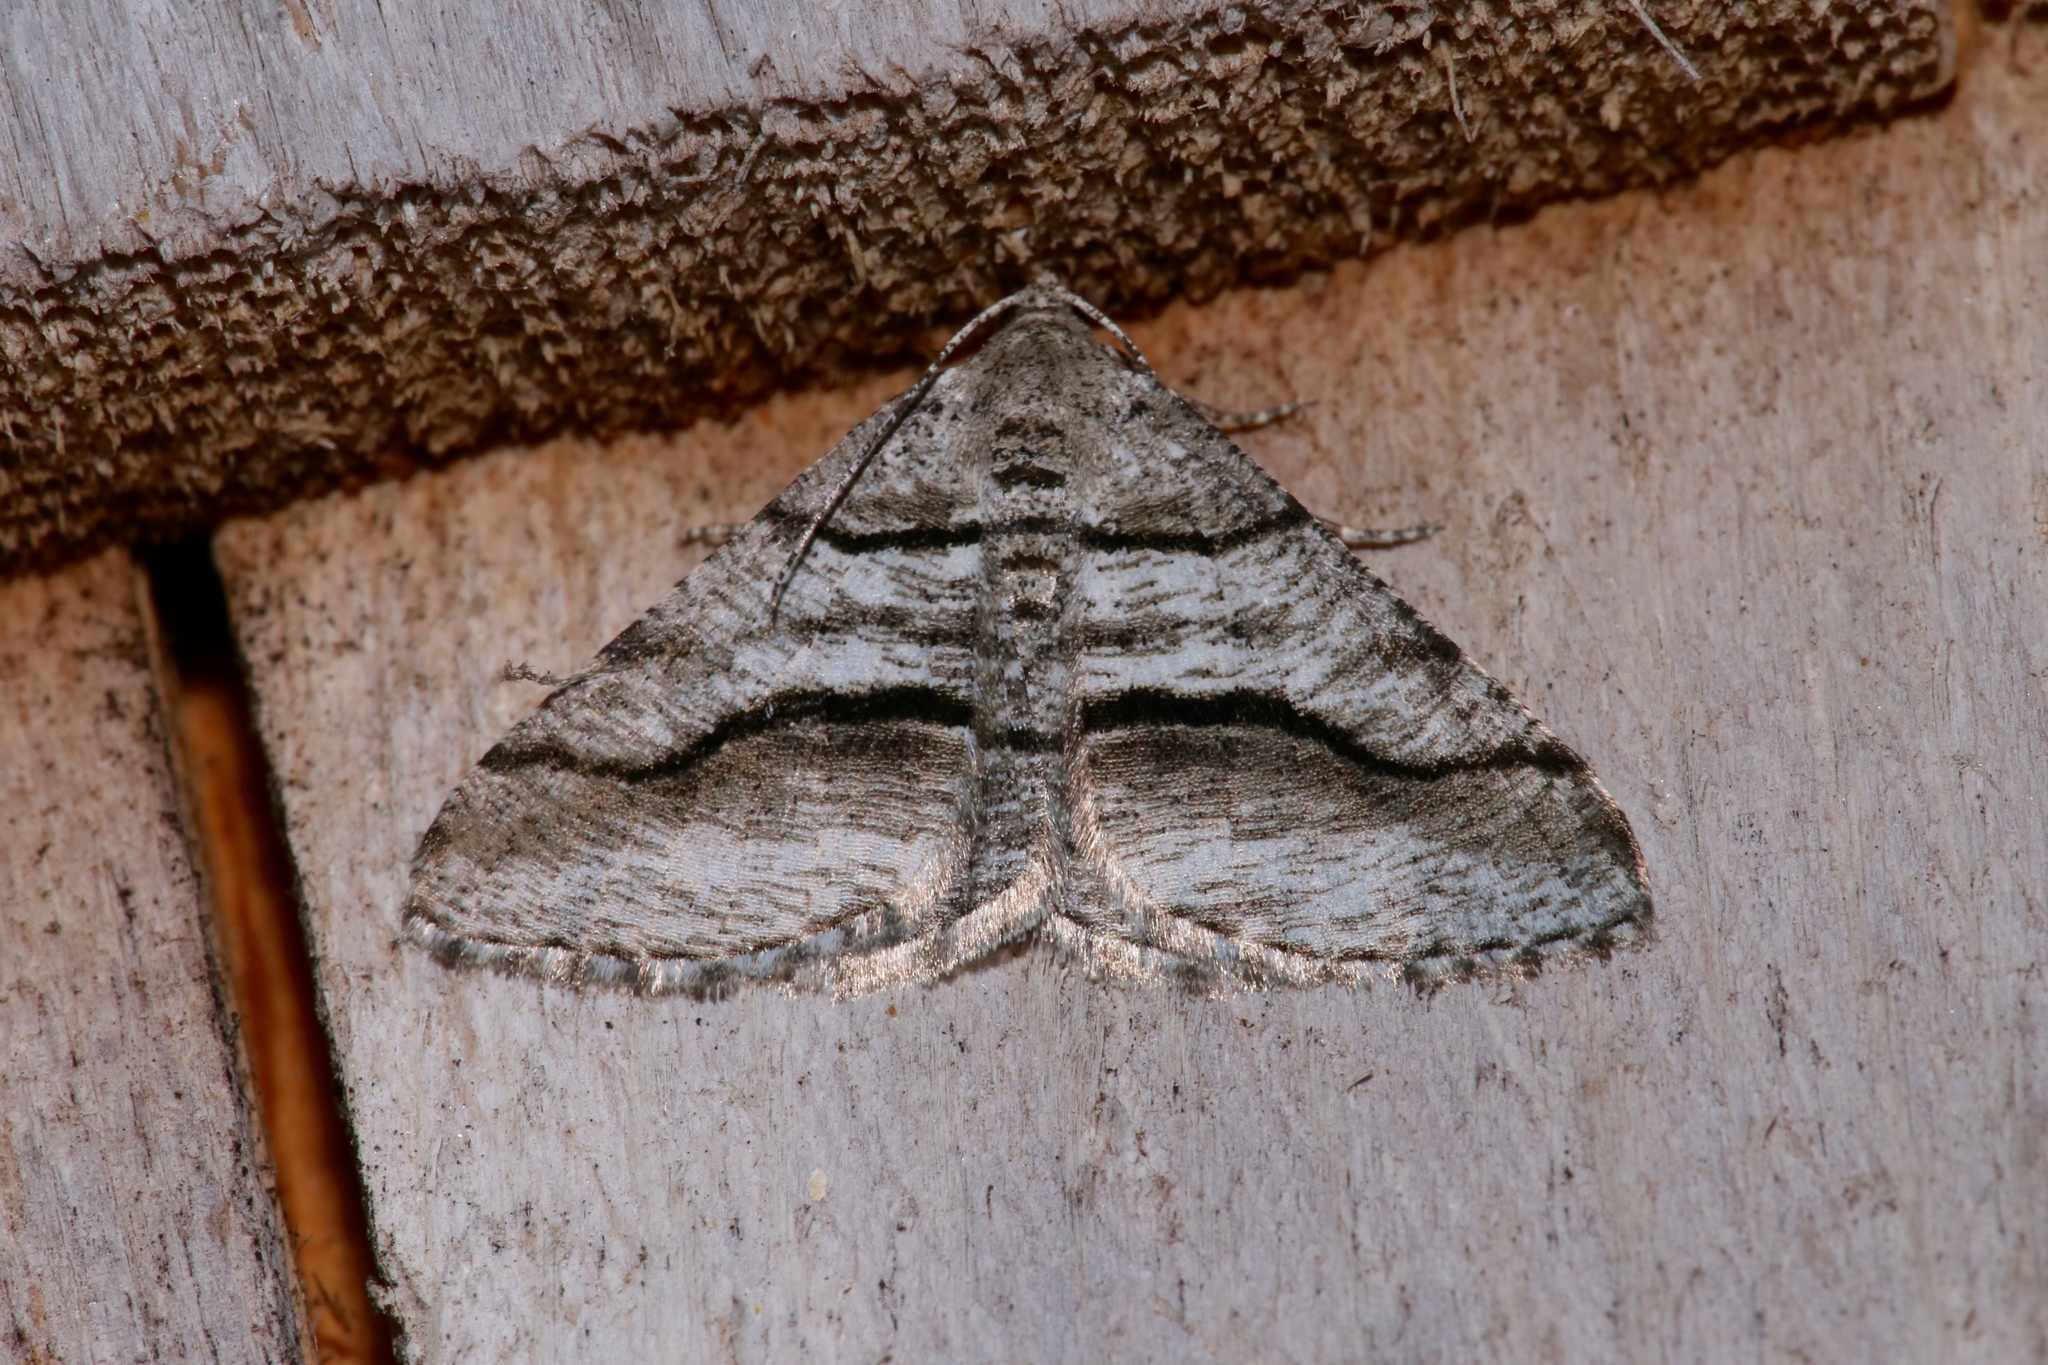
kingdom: Animalia
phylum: Arthropoda
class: Insecta
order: Lepidoptera
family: Geometridae
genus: Digrammia
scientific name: Digrammia continuata
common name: Curve-lined angle
